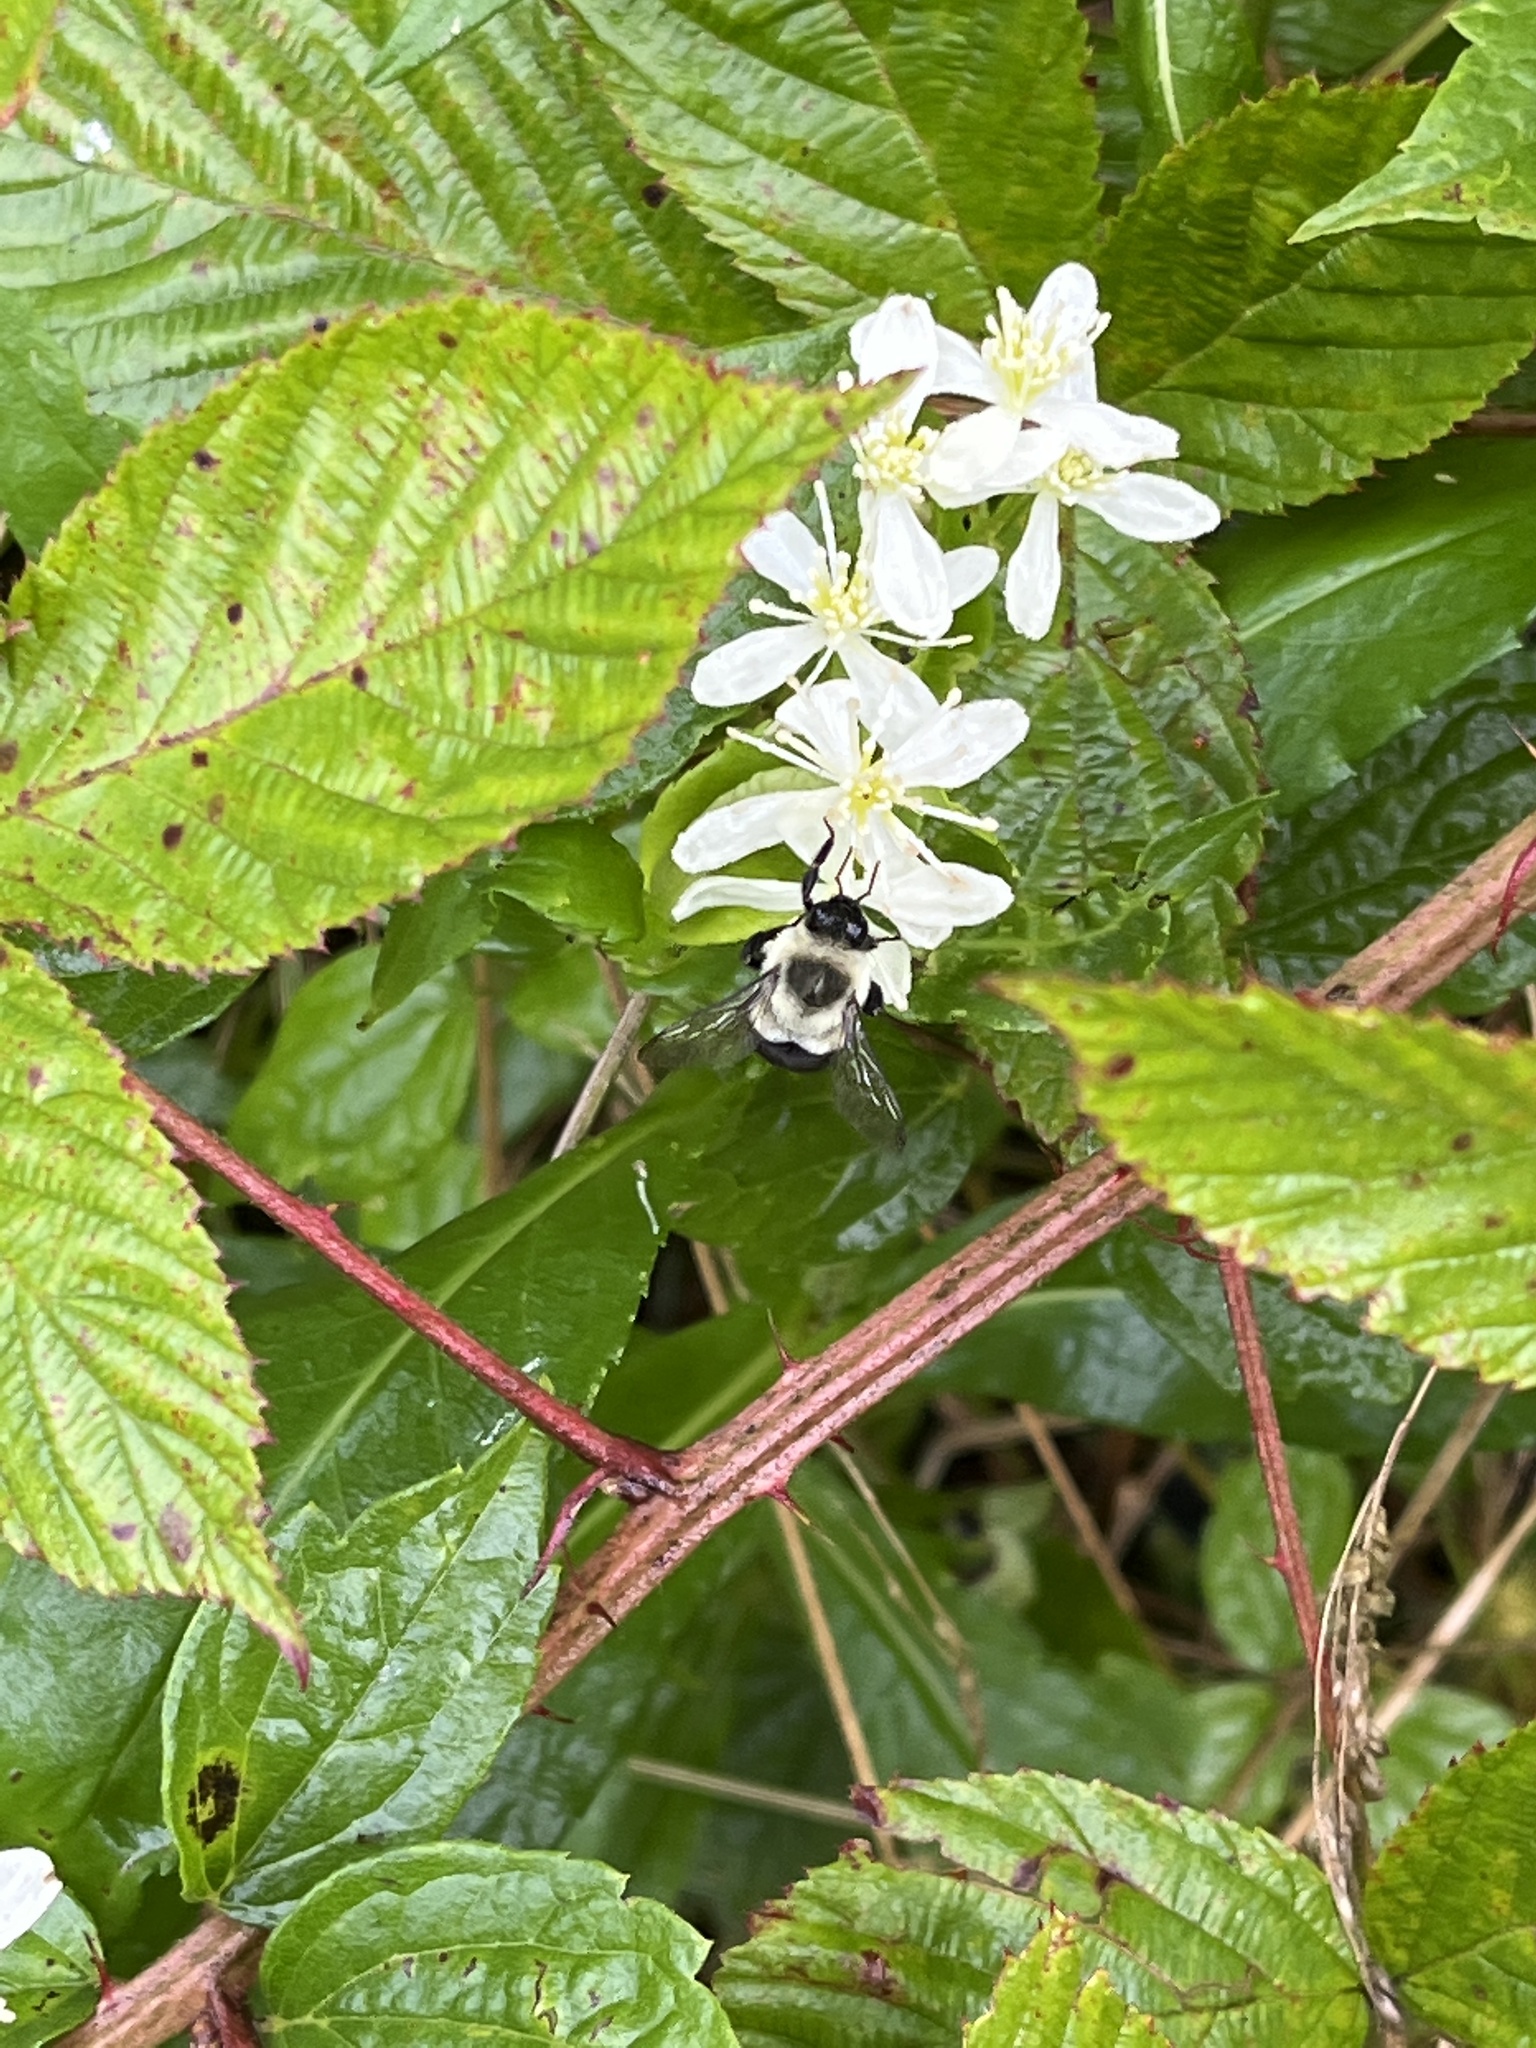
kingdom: Animalia
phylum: Arthropoda
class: Insecta
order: Hymenoptera
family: Apidae
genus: Bombus
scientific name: Bombus impatiens
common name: Common eastern bumble bee
